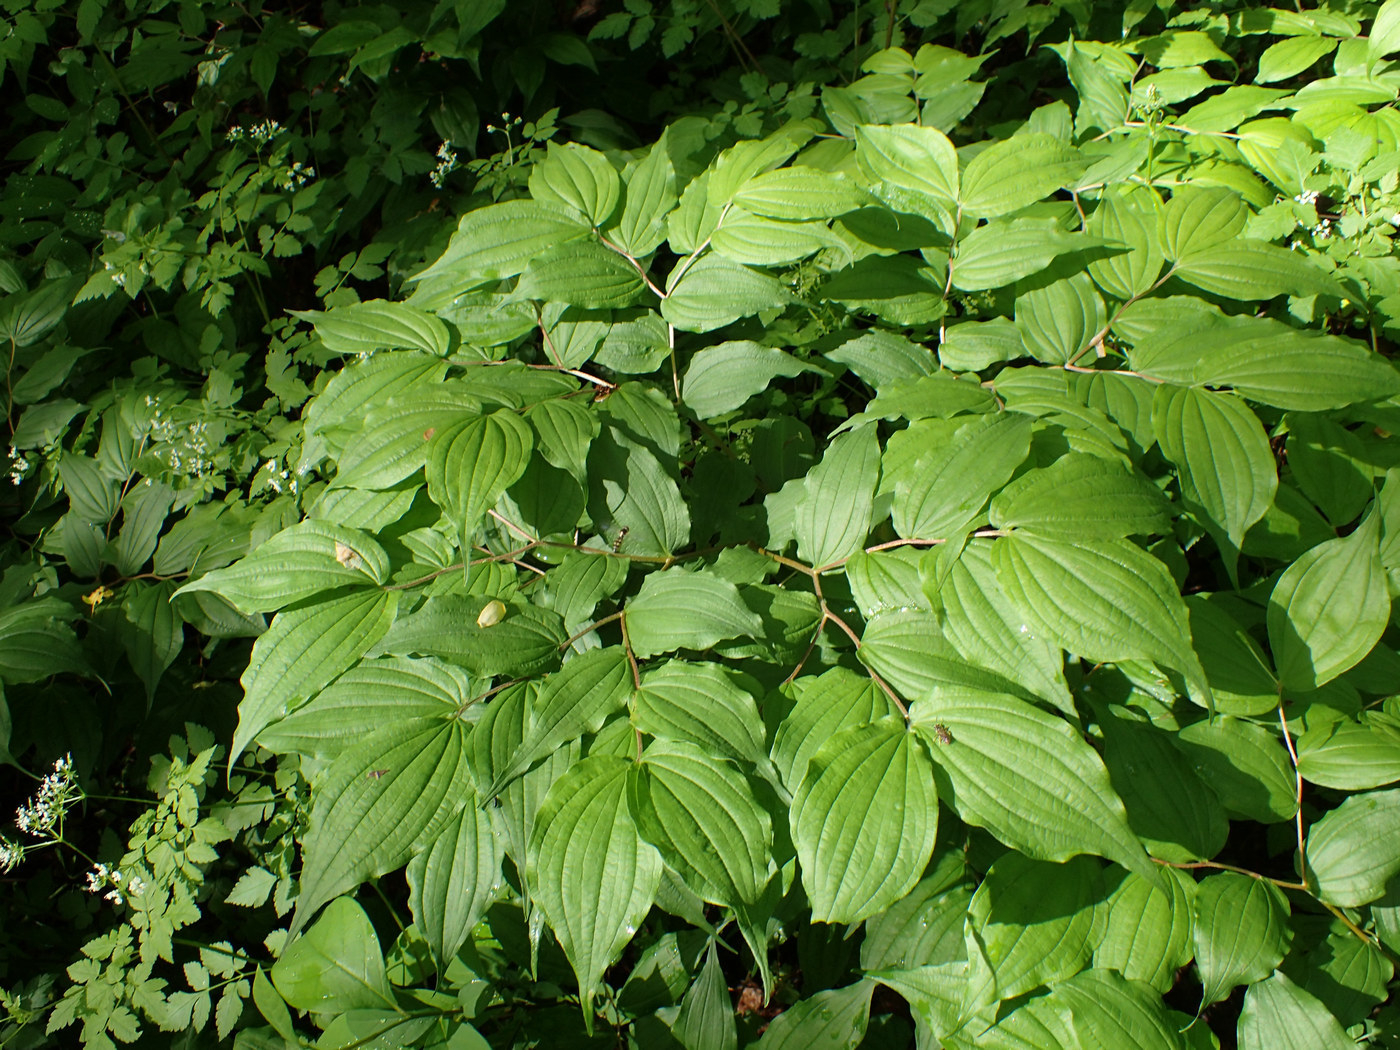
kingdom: Plantae
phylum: Tracheophyta
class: Liliopsida
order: Liliales
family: Liliaceae
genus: Prosartes
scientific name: Prosartes lanuginosa
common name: Hairy mandarin
